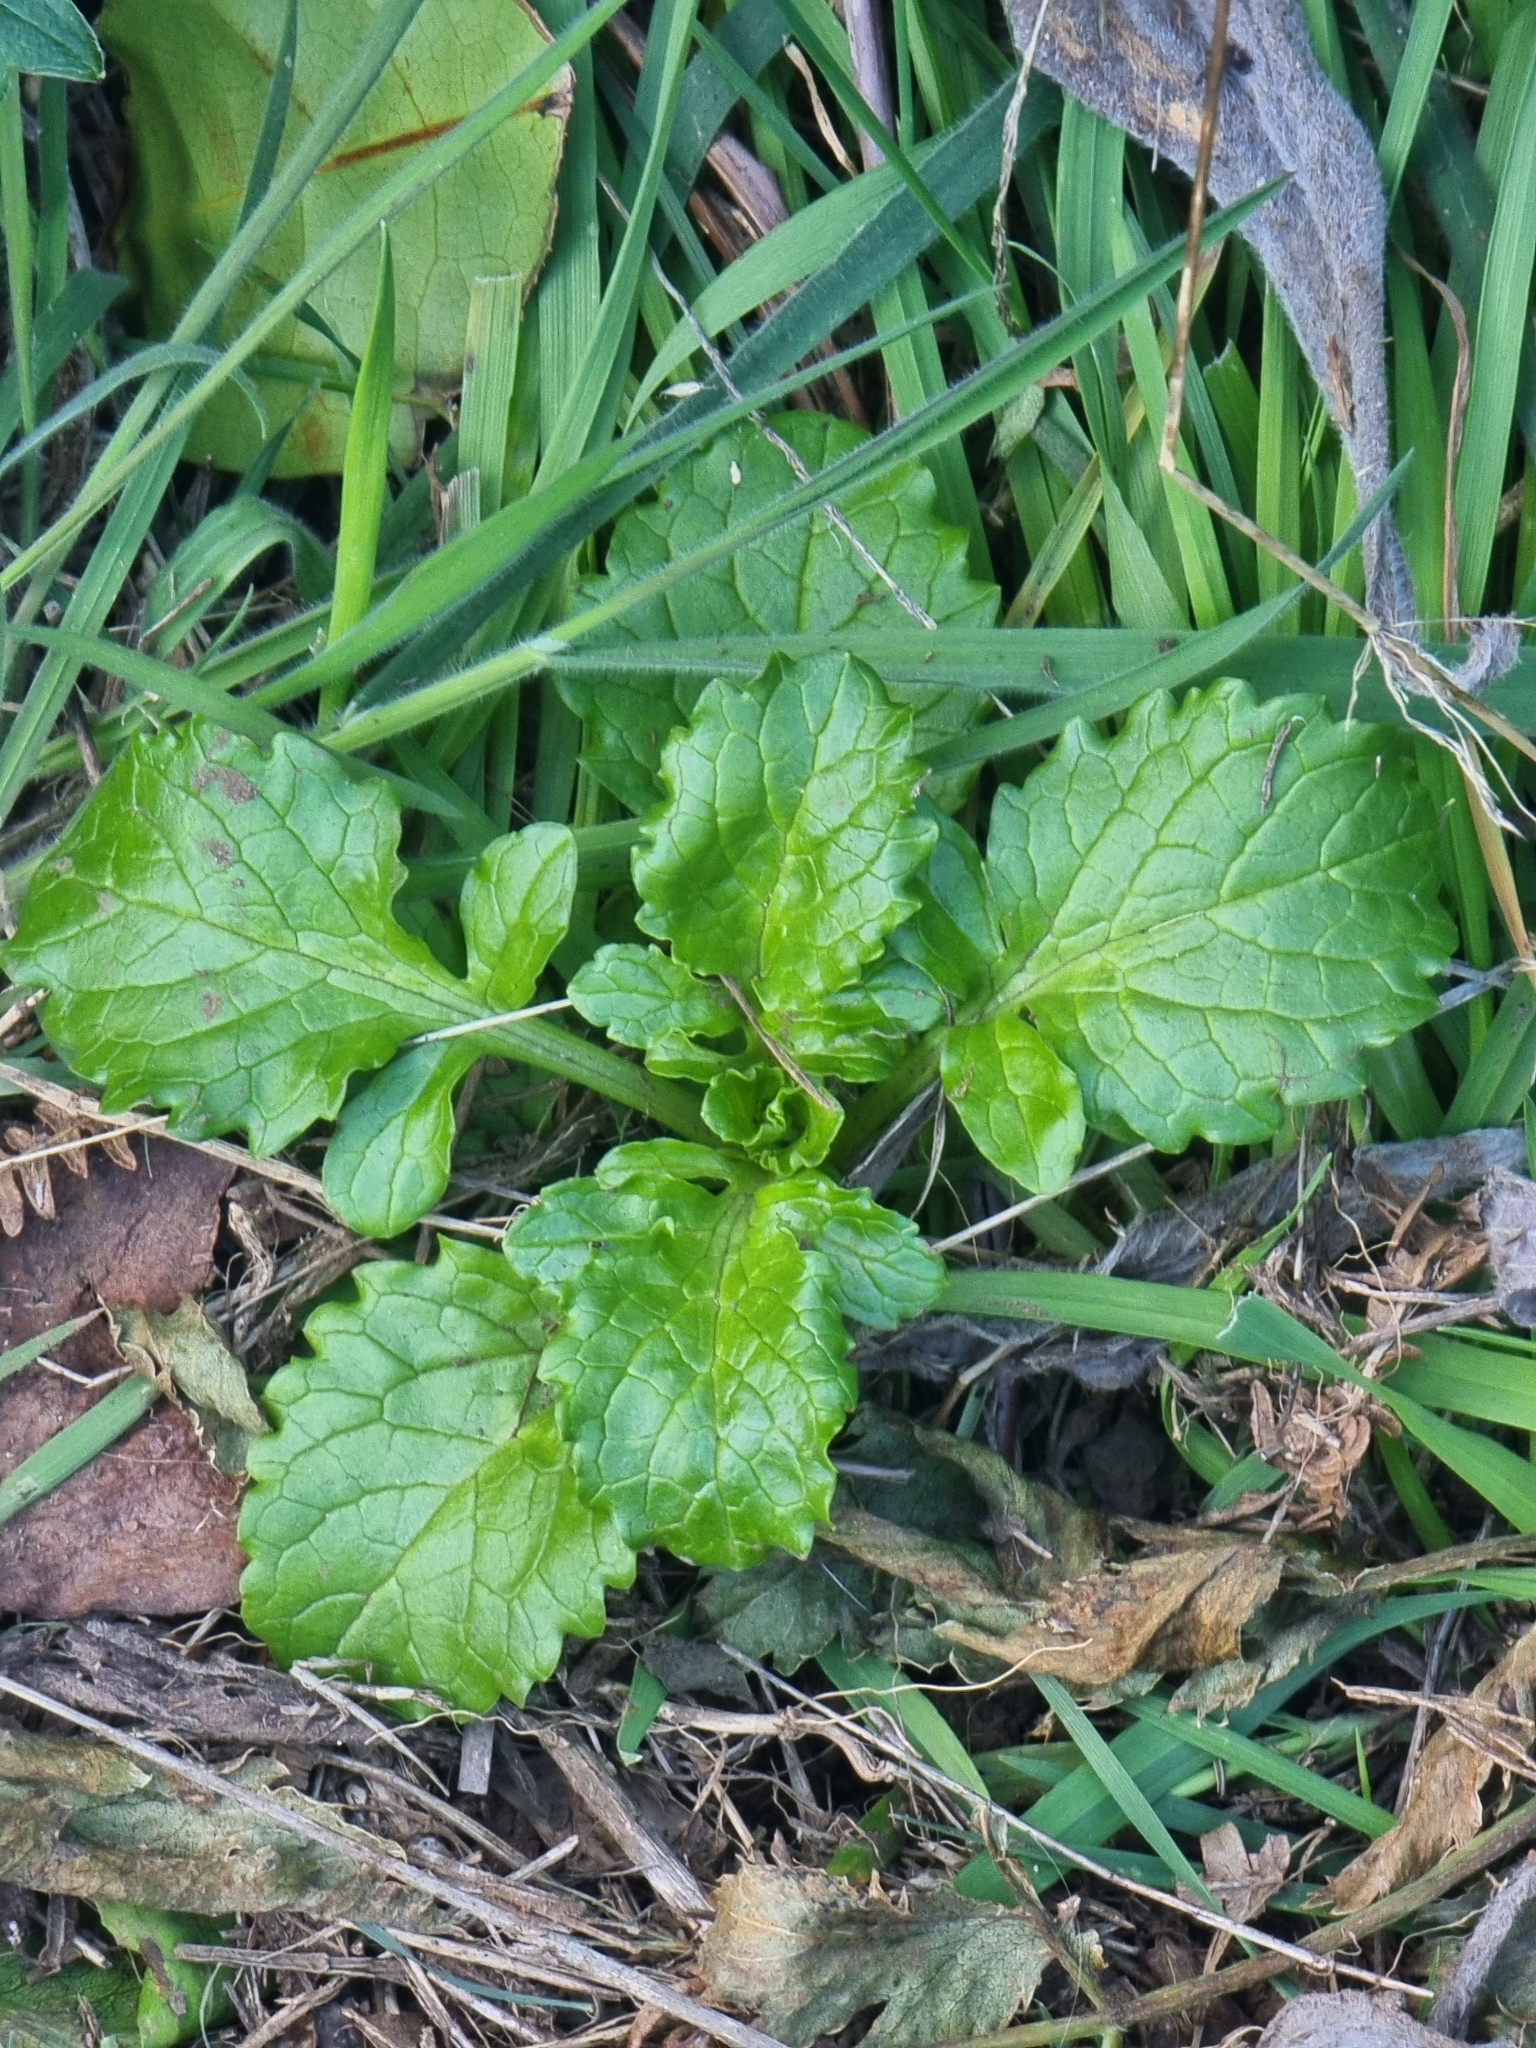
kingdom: Plantae
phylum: Tracheophyta
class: Magnoliopsida
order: Dipsacales
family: Caprifoliaceae
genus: Centranthus
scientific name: Centranthus calcitrapae
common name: Annual valerian
